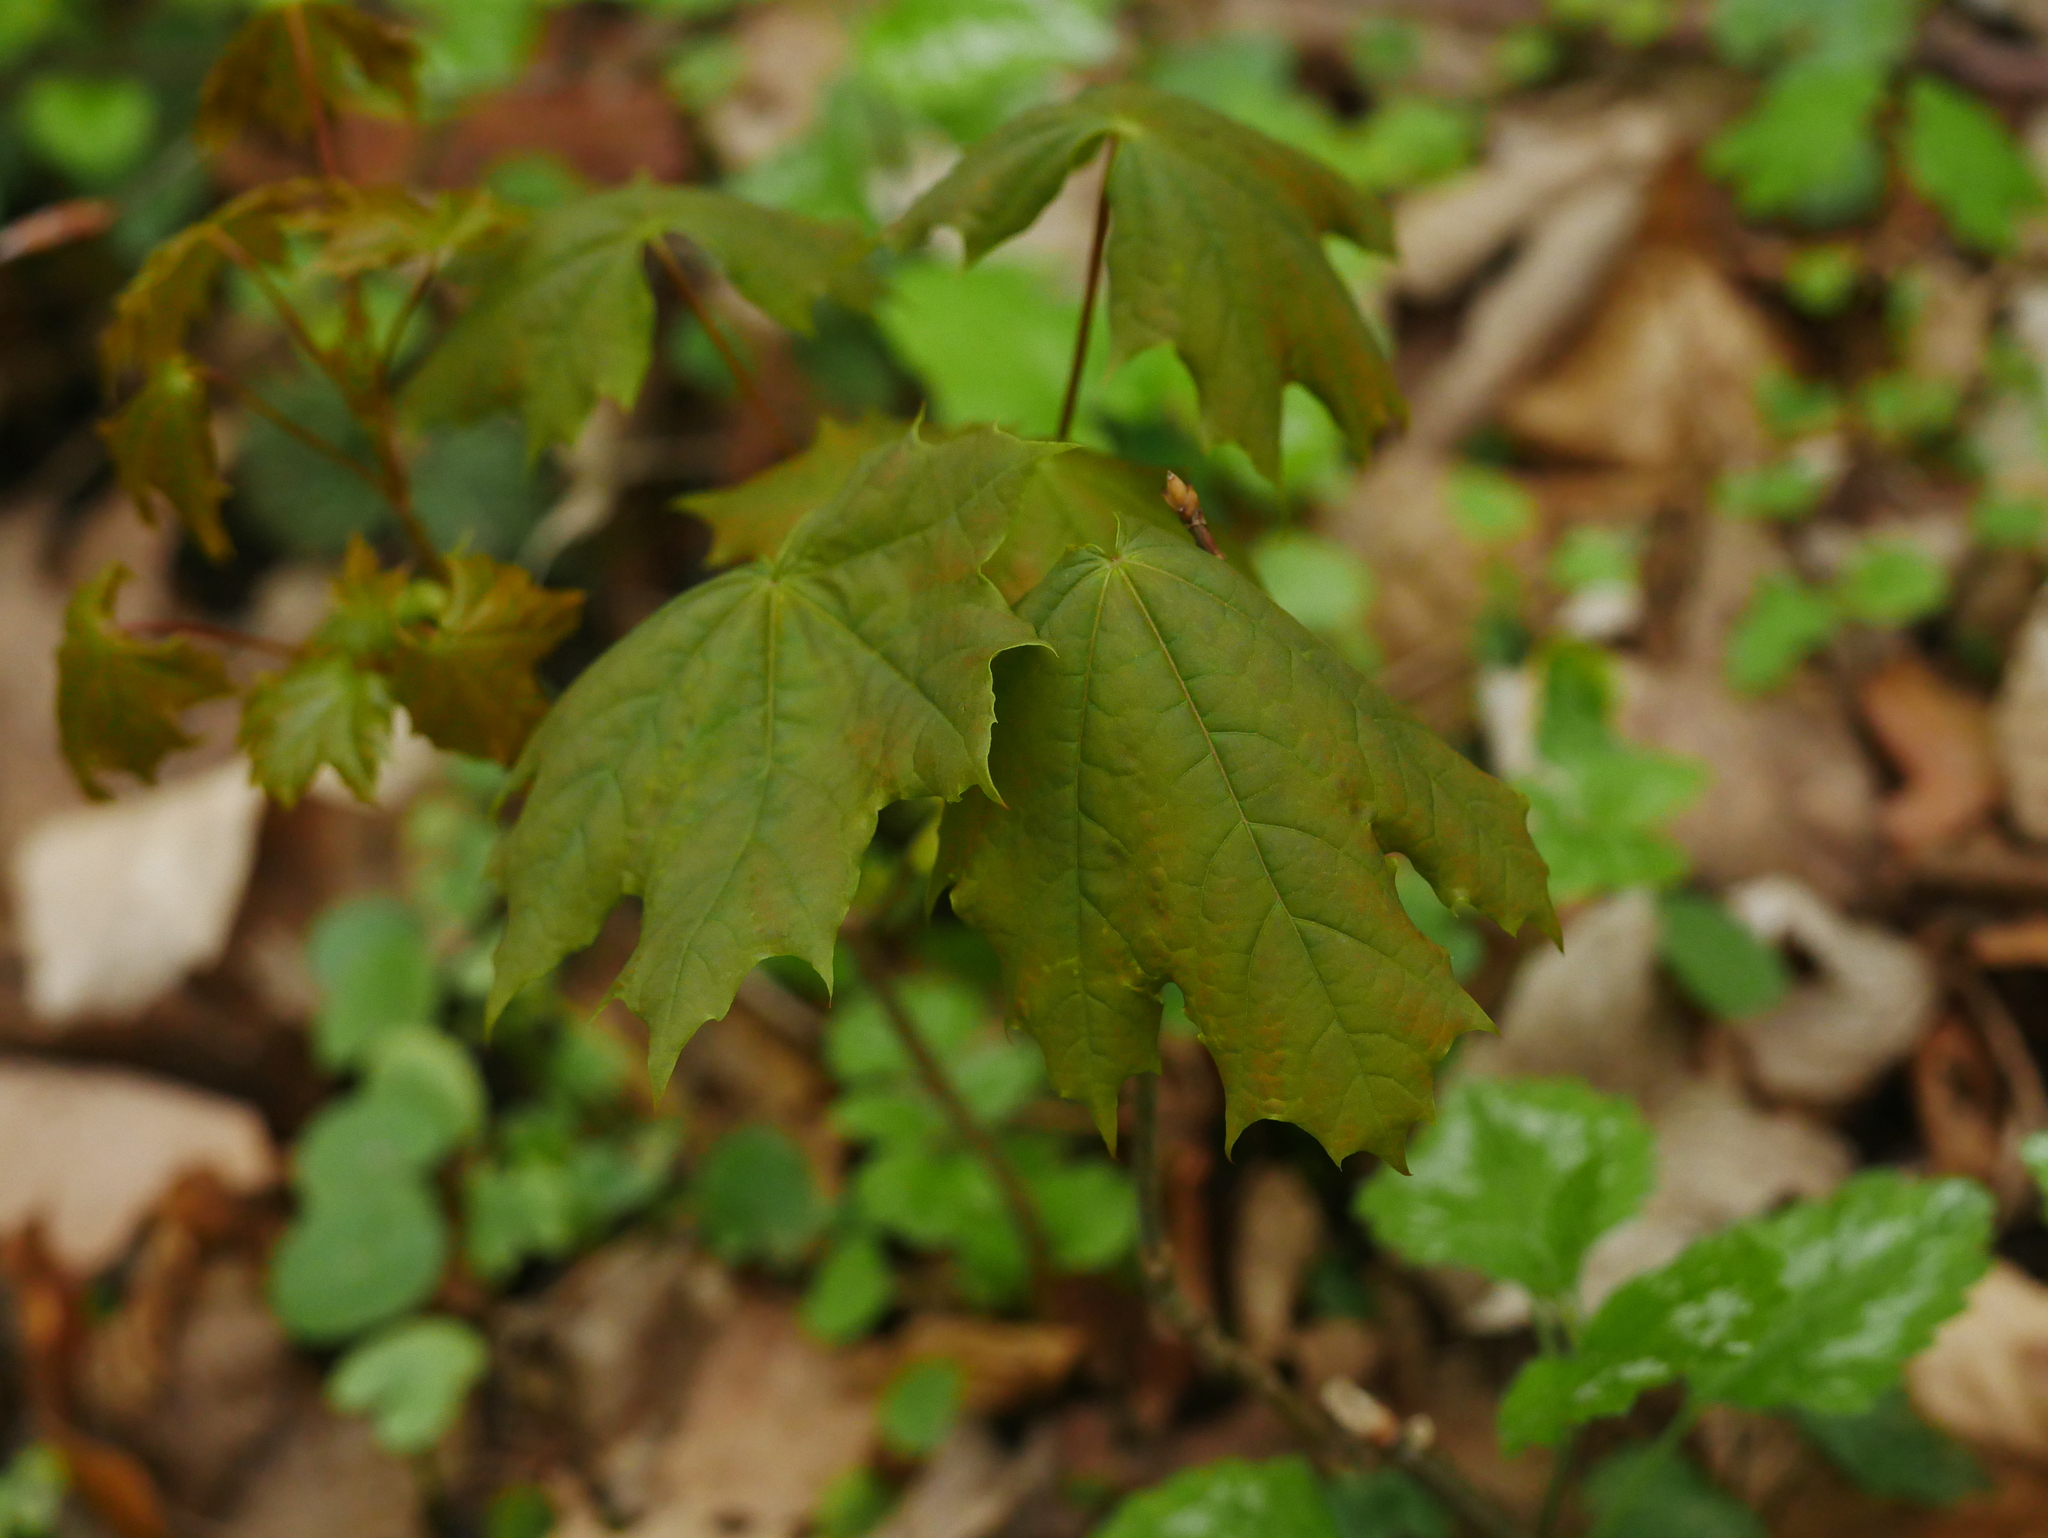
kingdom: Plantae
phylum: Tracheophyta
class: Magnoliopsida
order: Sapindales
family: Sapindaceae
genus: Acer
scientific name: Acer platanoides
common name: Norway maple
